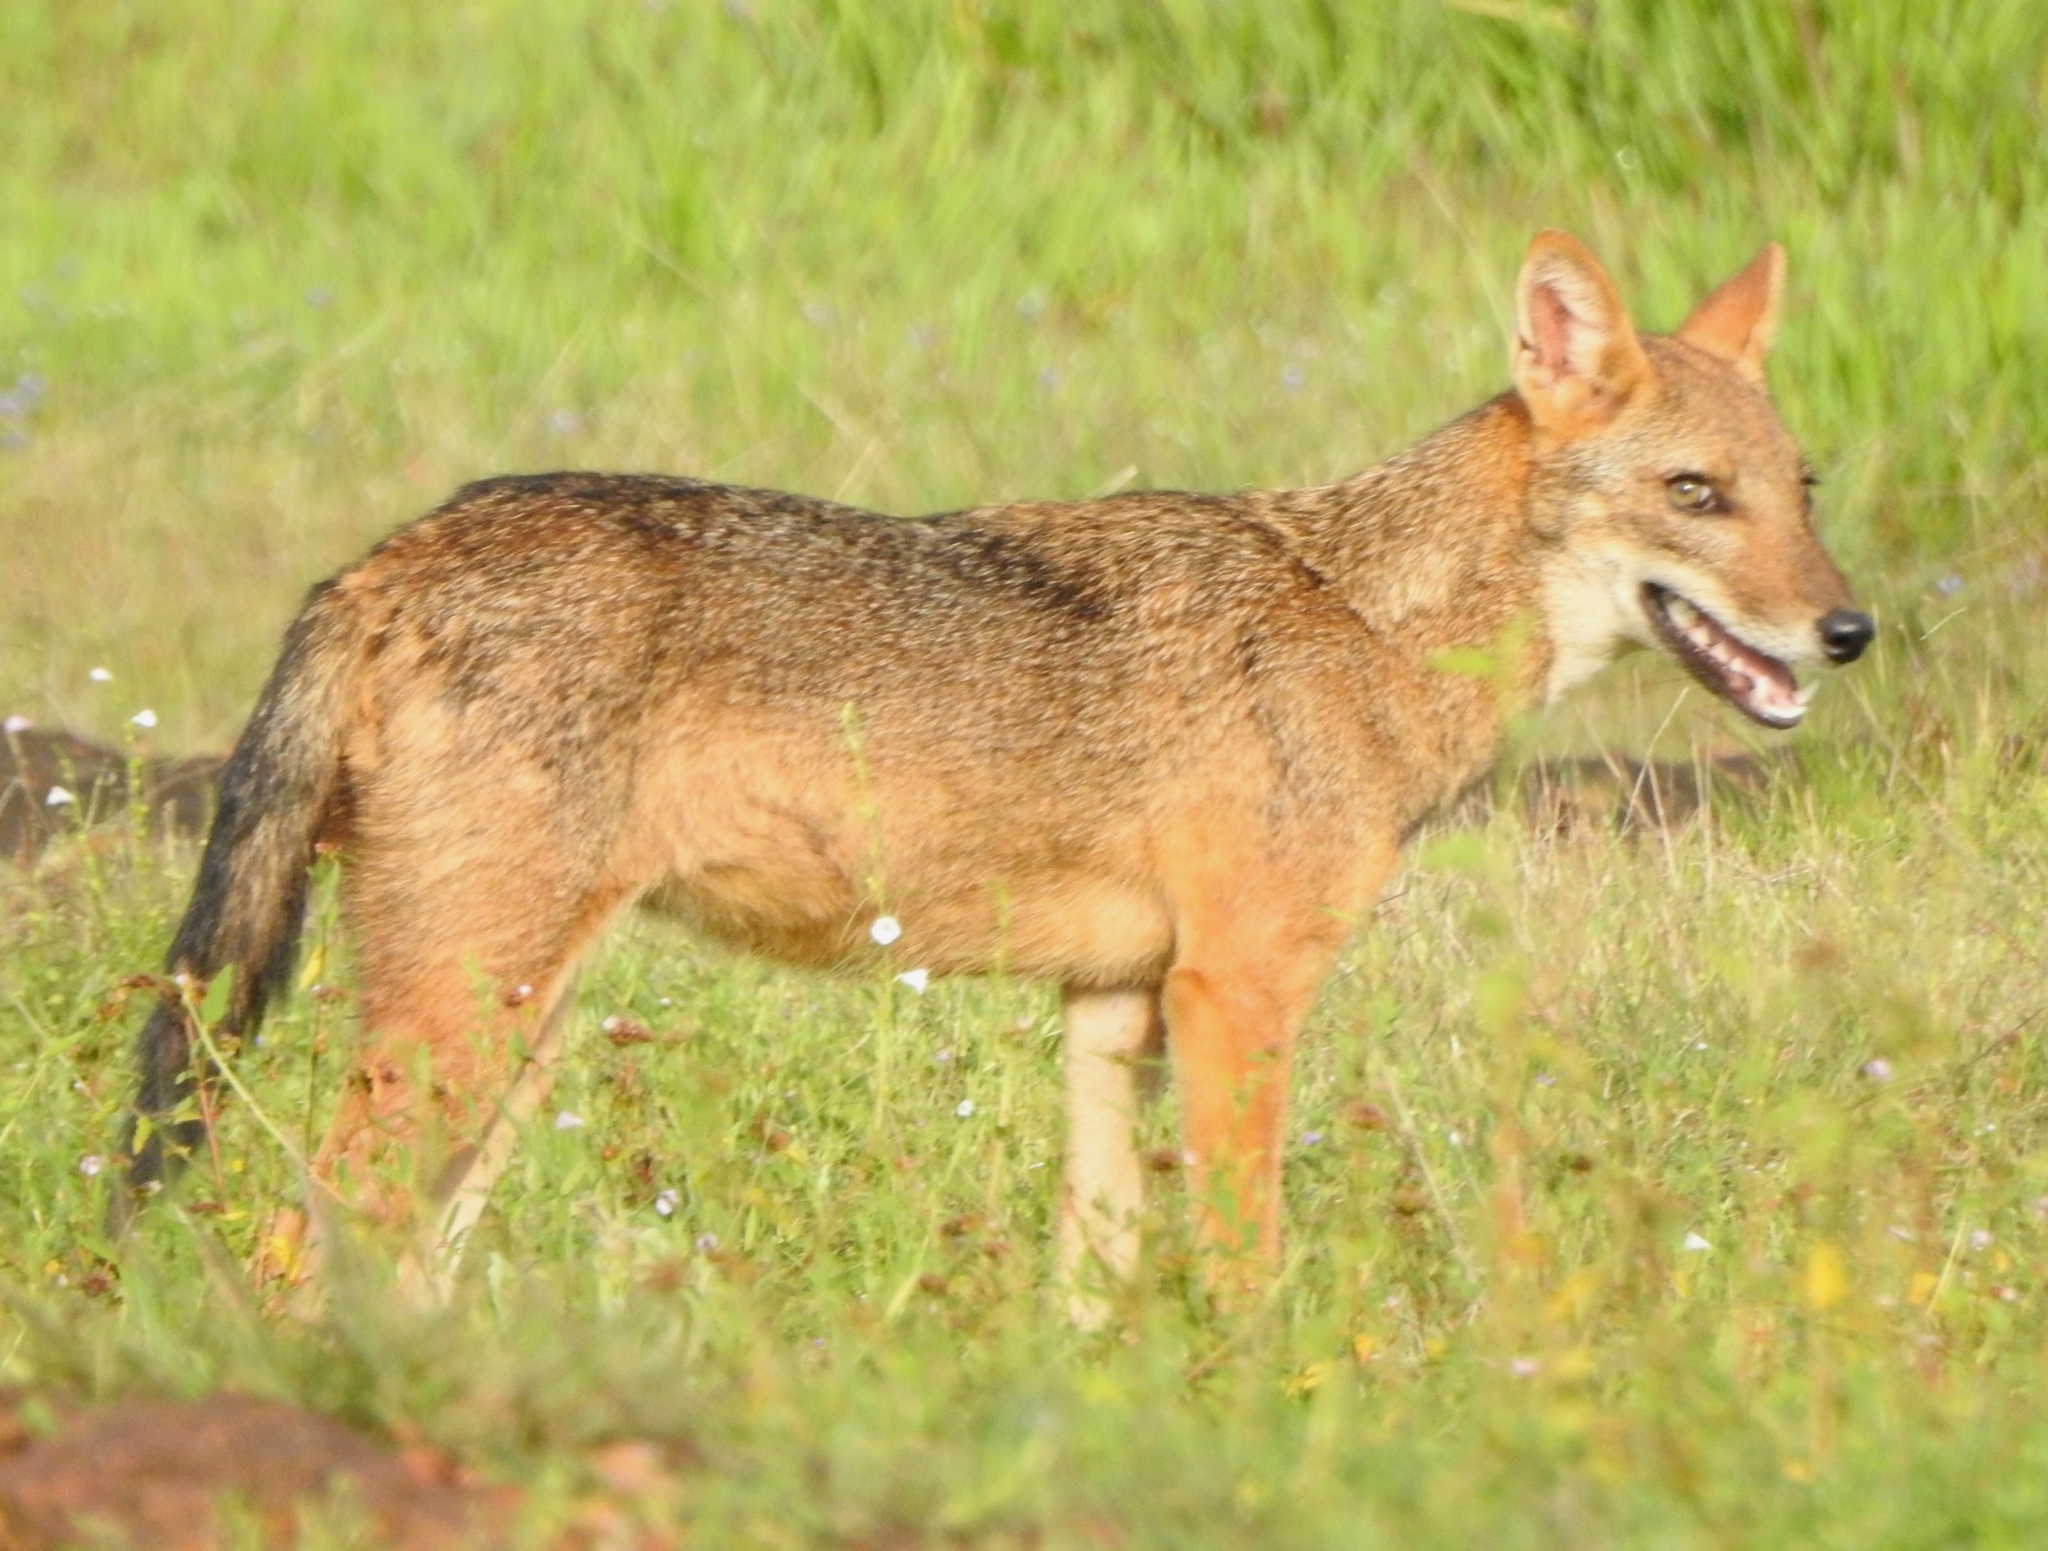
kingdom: Animalia
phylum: Chordata
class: Mammalia
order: Carnivora
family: Canidae
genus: Canis
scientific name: Canis aureus
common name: Golden jackal
